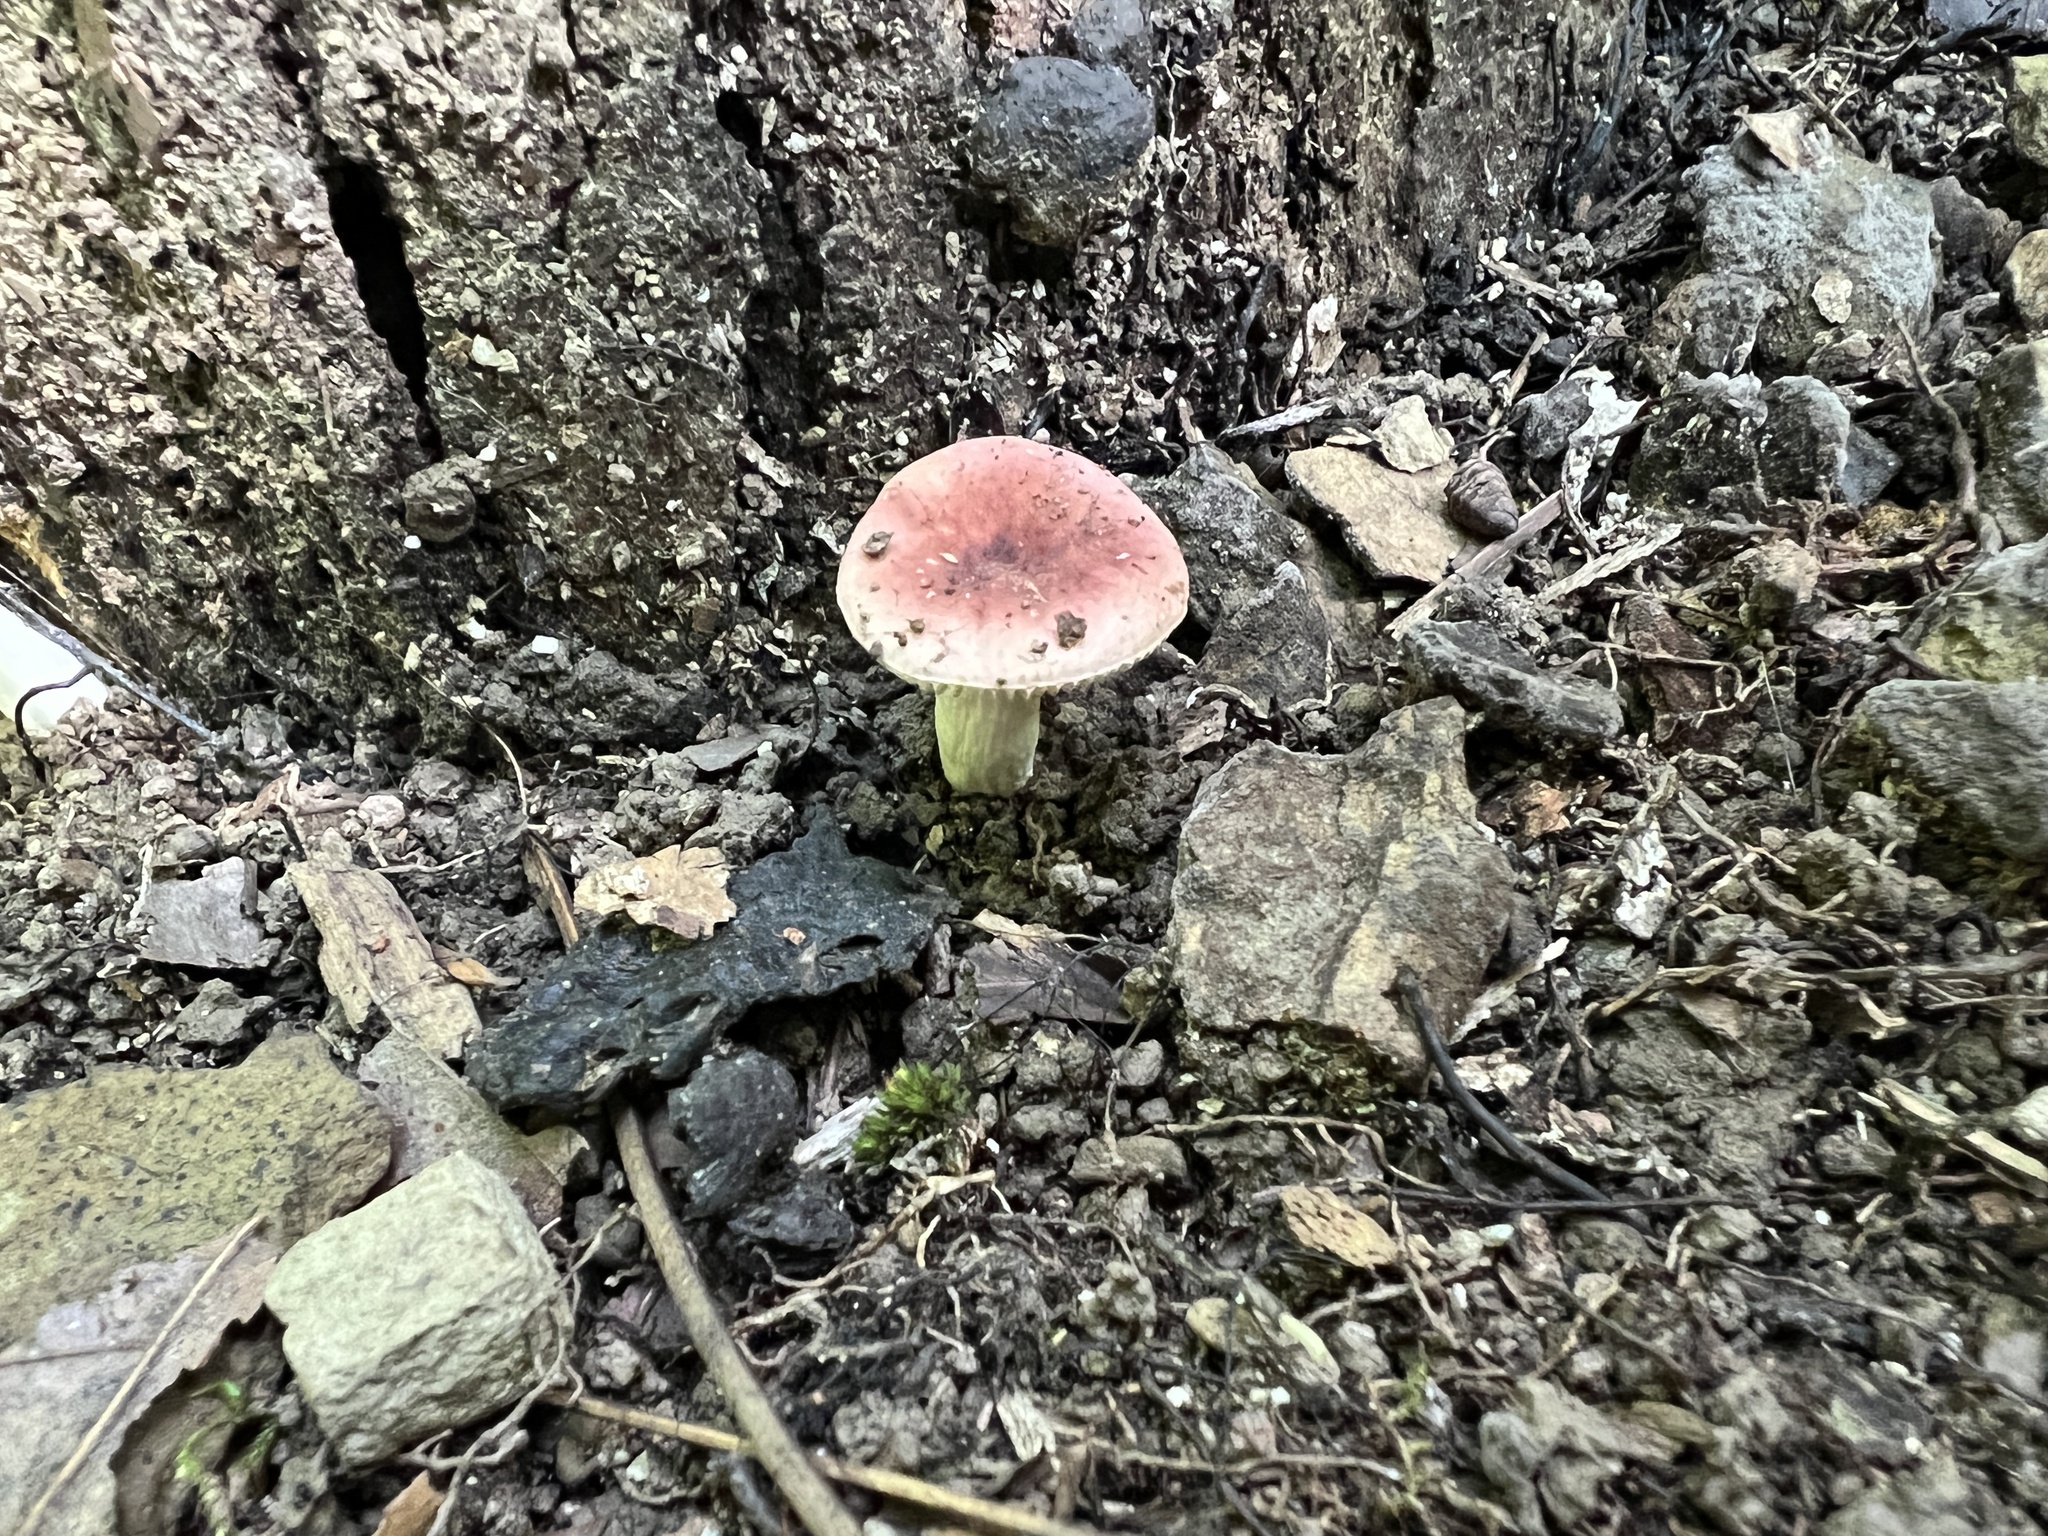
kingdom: Fungi
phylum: Basidiomycota
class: Agaricomycetes
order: Russulales
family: Russulaceae
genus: Russula
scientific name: Russula cremeirosea
